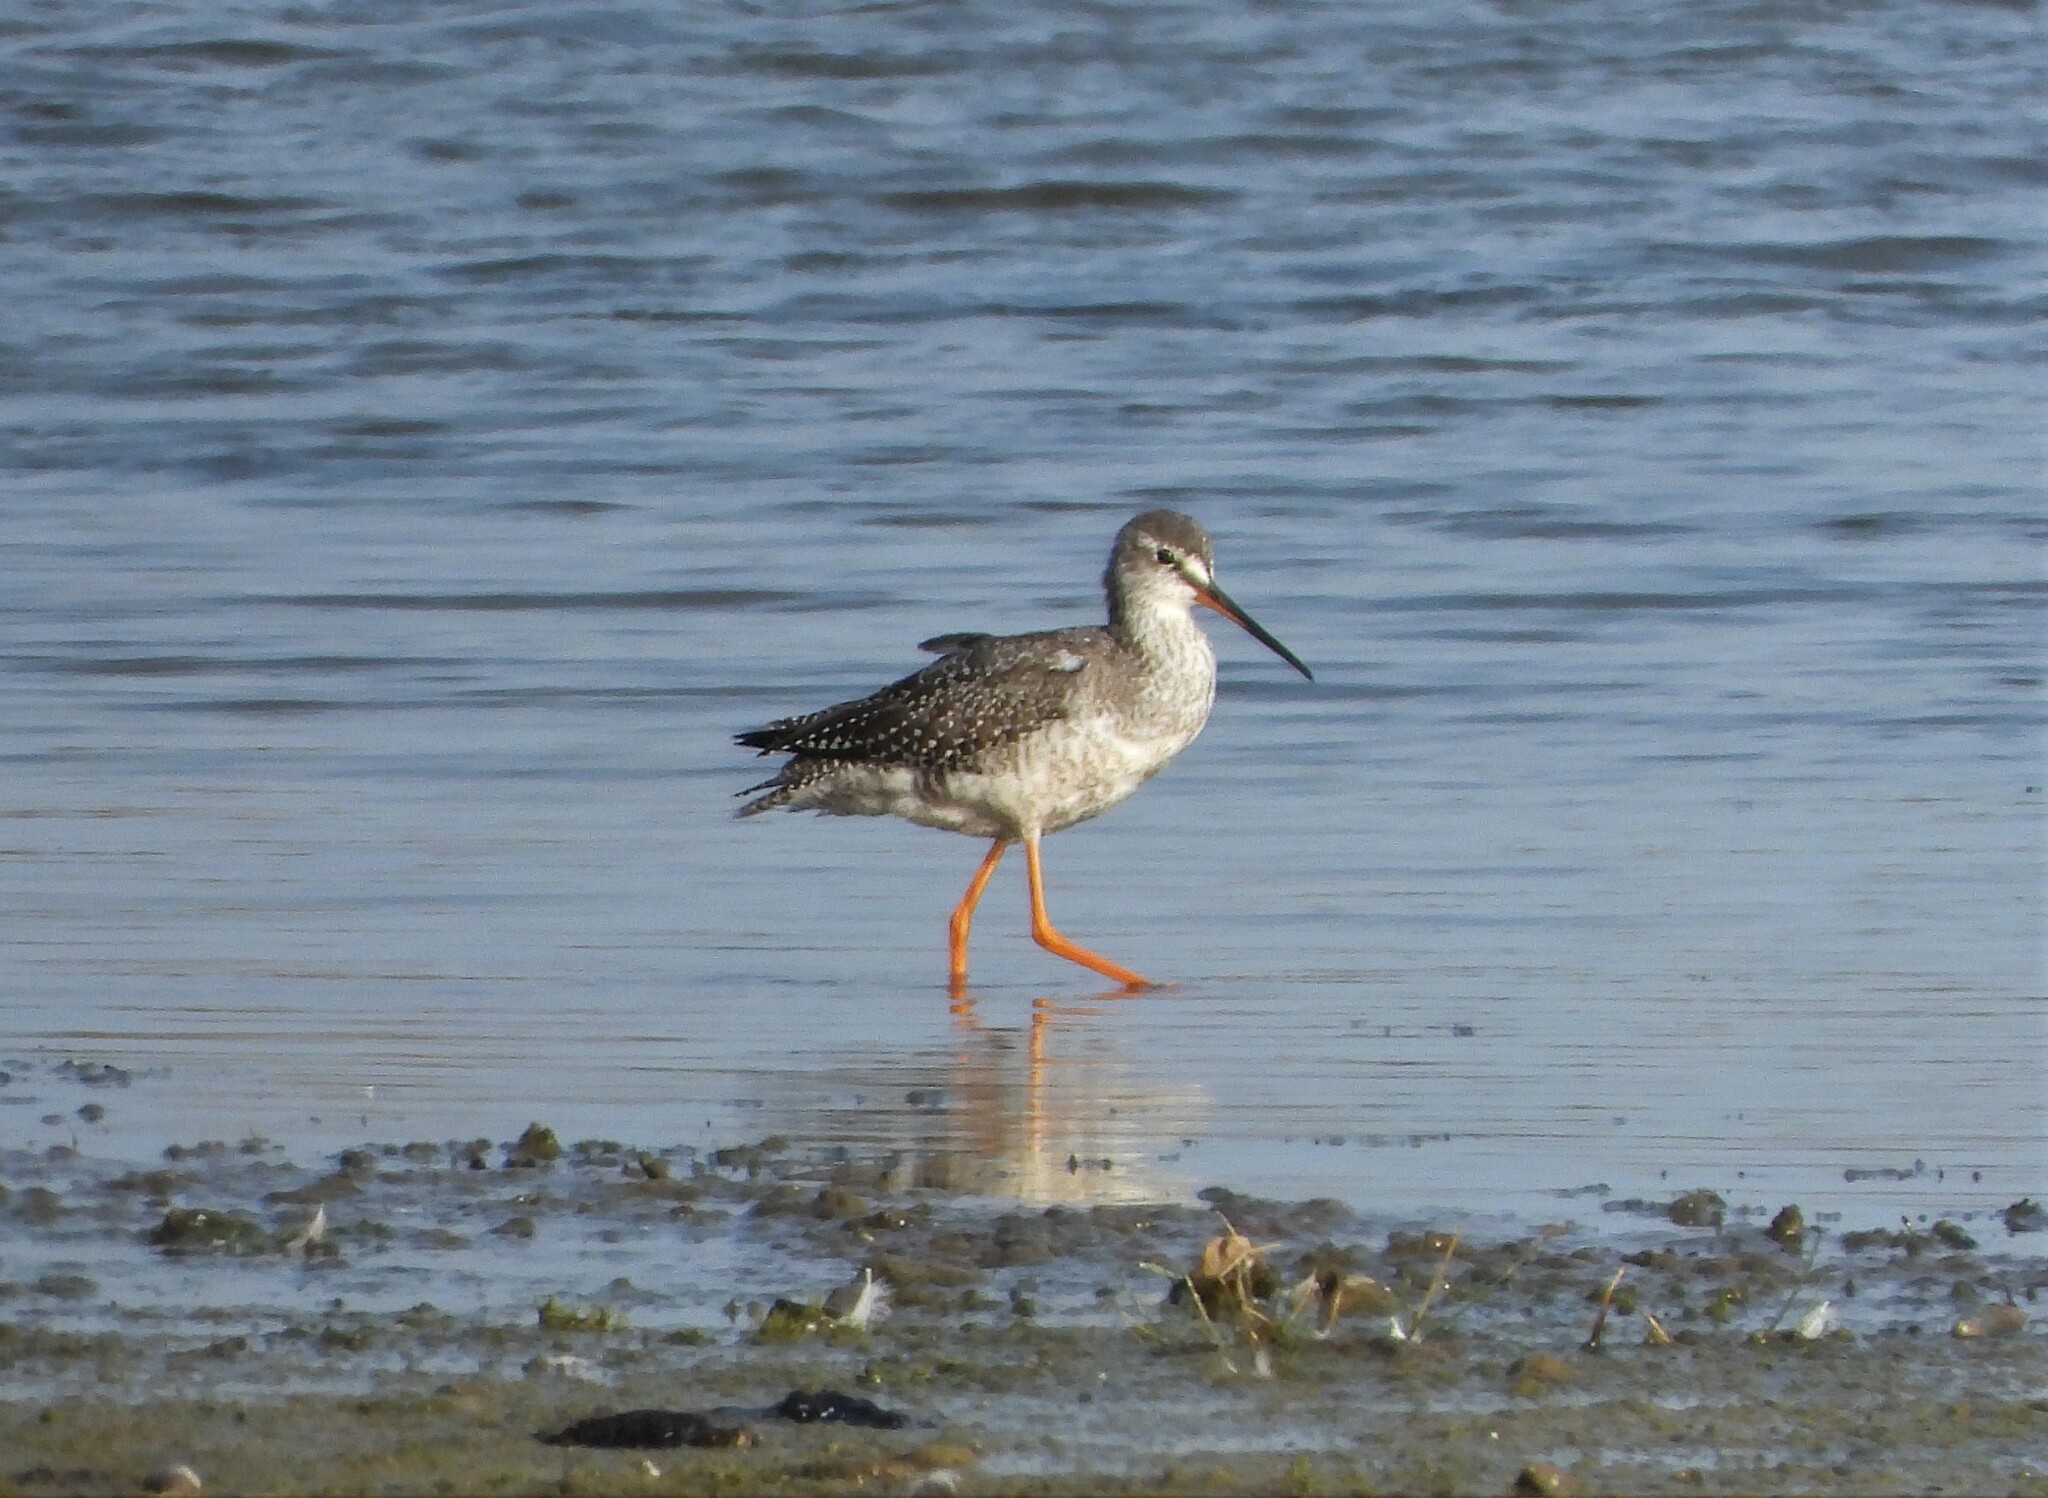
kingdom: Animalia
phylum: Chordata
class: Aves
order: Charadriiformes
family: Scolopacidae
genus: Tringa
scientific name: Tringa erythropus
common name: Spotted redshank
